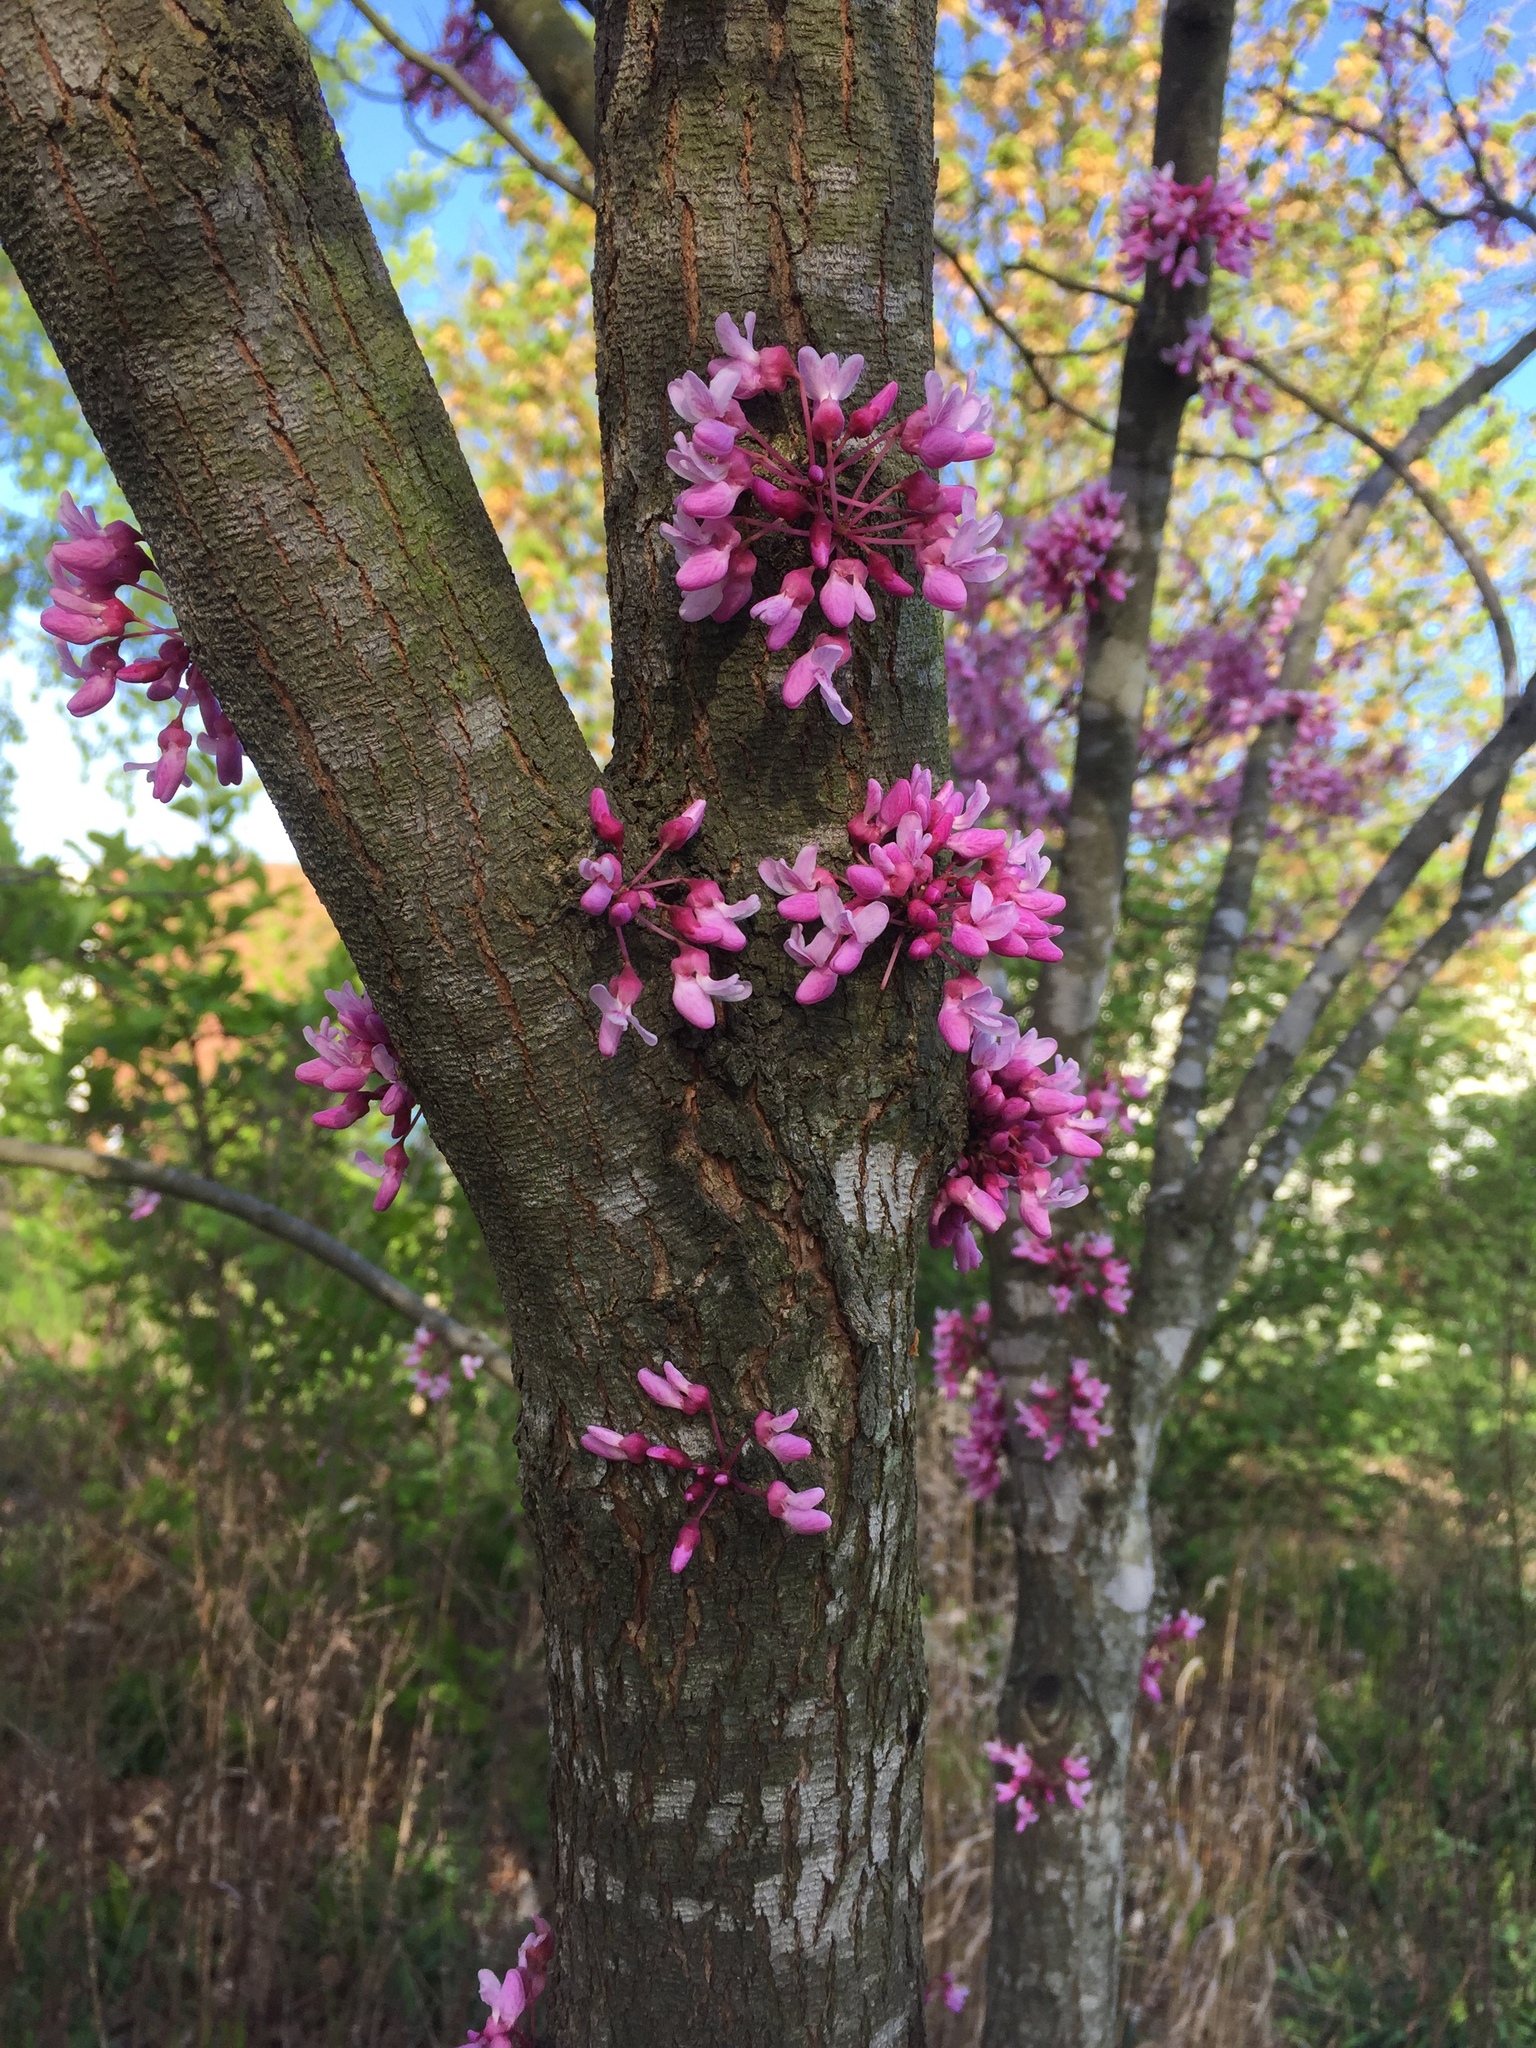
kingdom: Plantae
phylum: Tracheophyta
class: Magnoliopsida
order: Fabales
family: Fabaceae
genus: Cercis
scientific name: Cercis canadensis
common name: Eastern redbud
